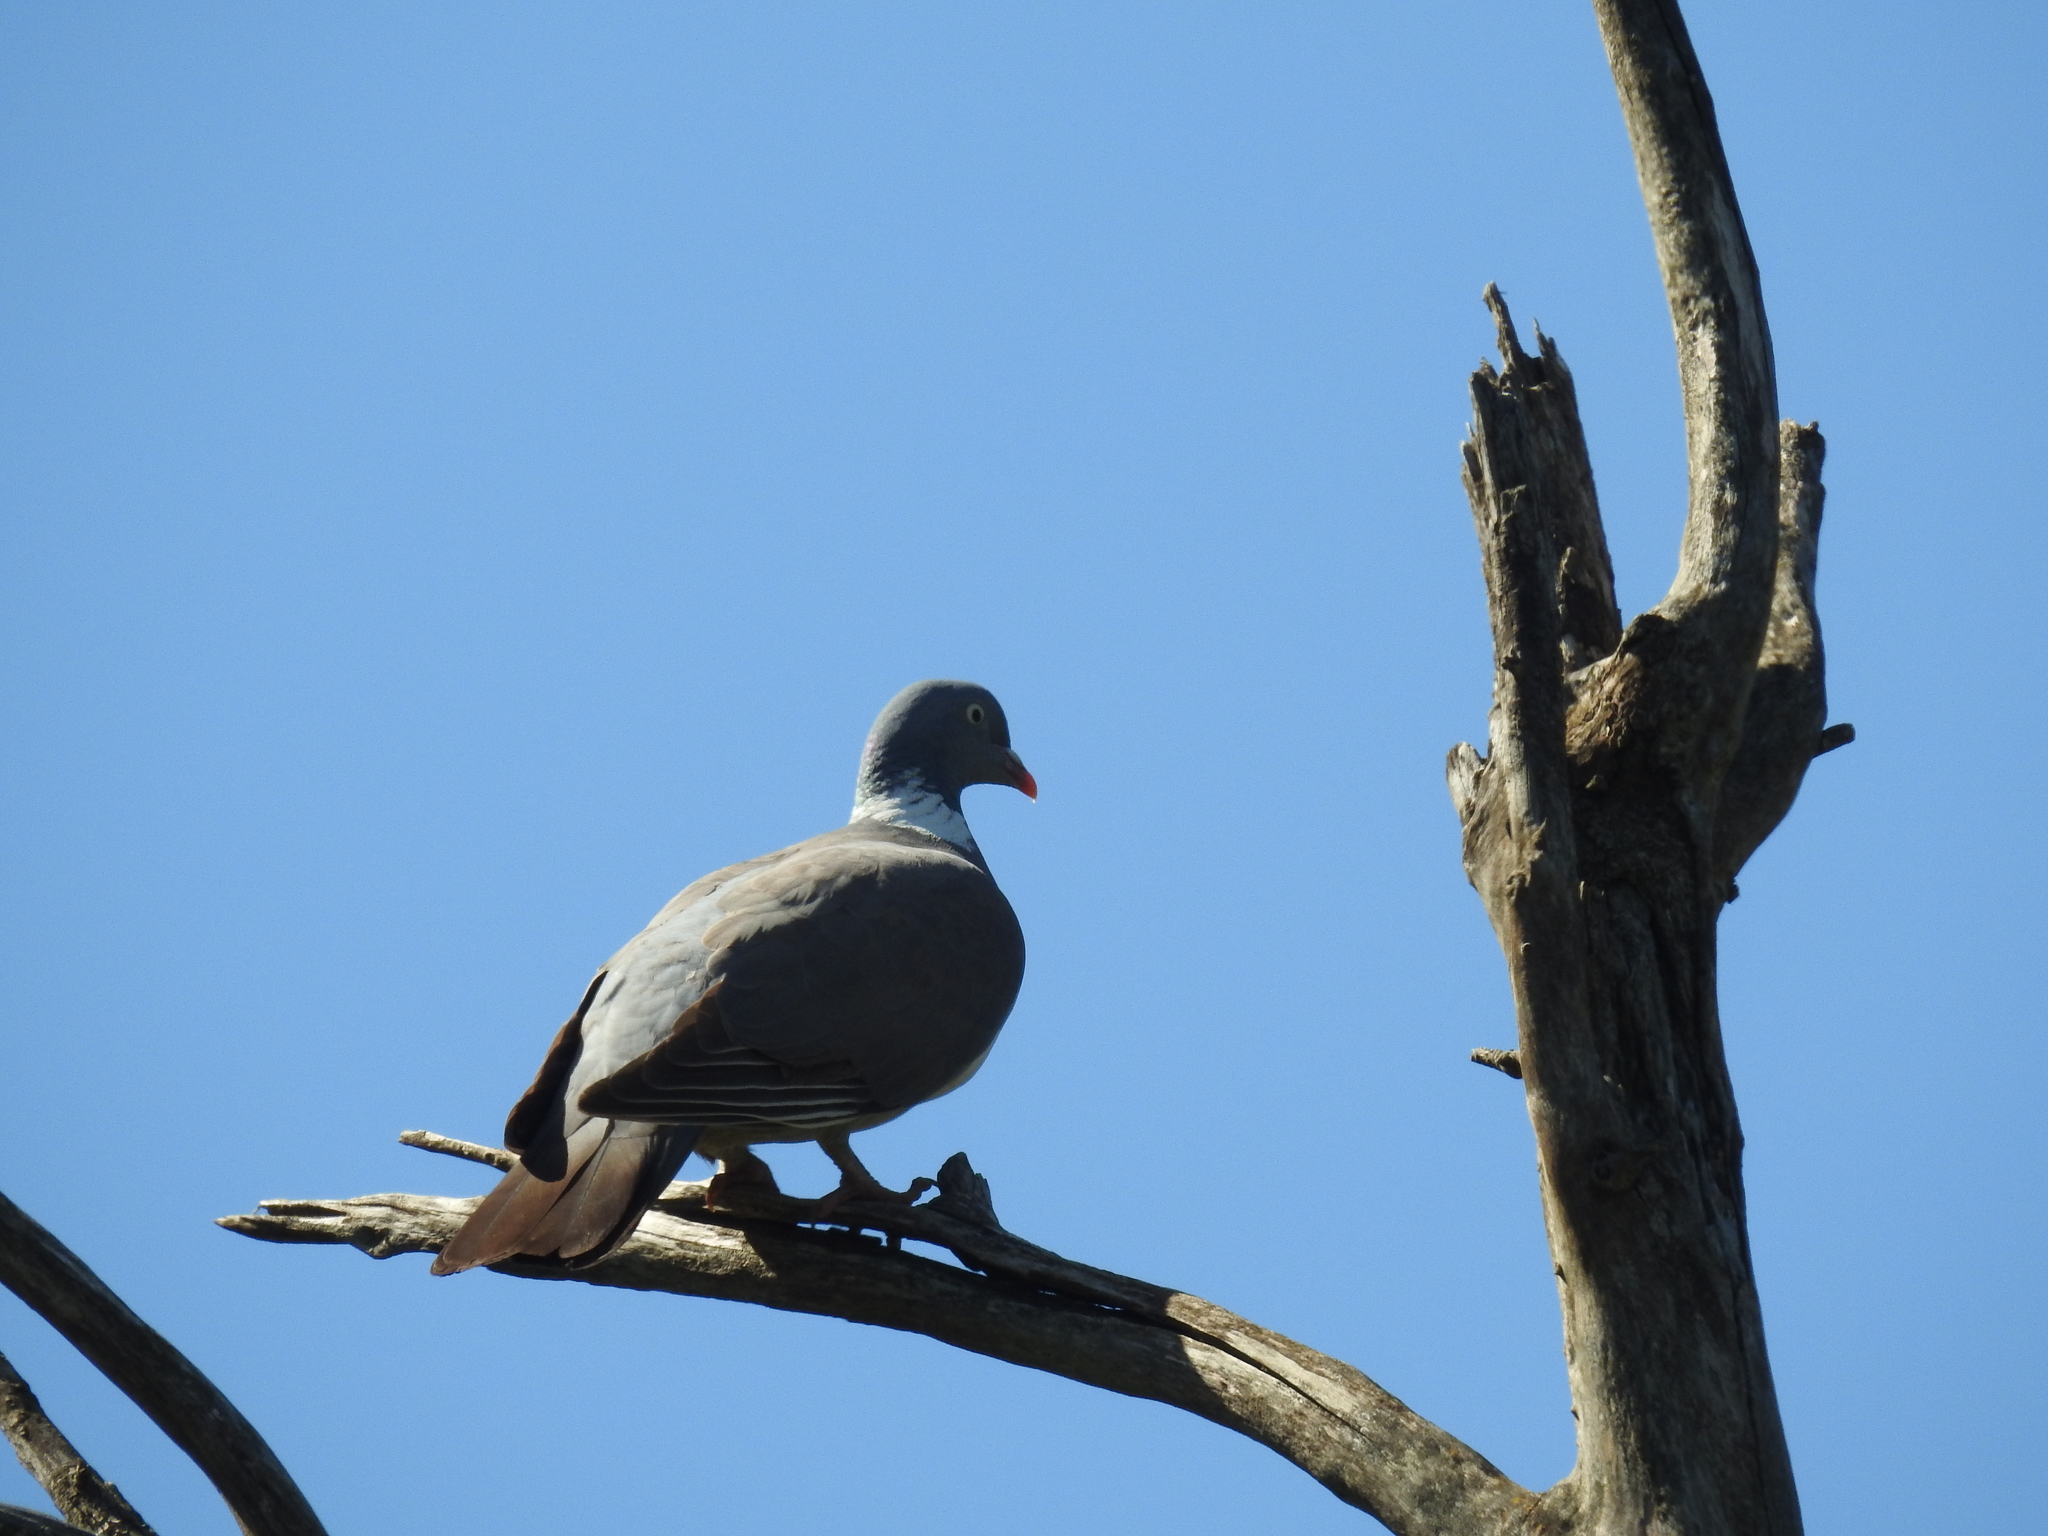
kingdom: Animalia
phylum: Chordata
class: Aves
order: Columbiformes
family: Columbidae
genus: Columba
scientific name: Columba palumbus
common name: Common wood pigeon
